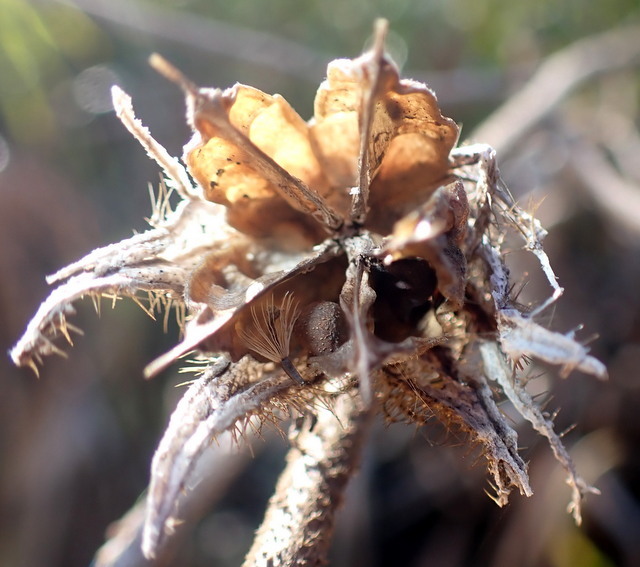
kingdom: Plantae
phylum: Tracheophyta
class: Magnoliopsida
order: Malvales
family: Malvaceae
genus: Hibiscus
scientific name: Hibiscus aculeatus
